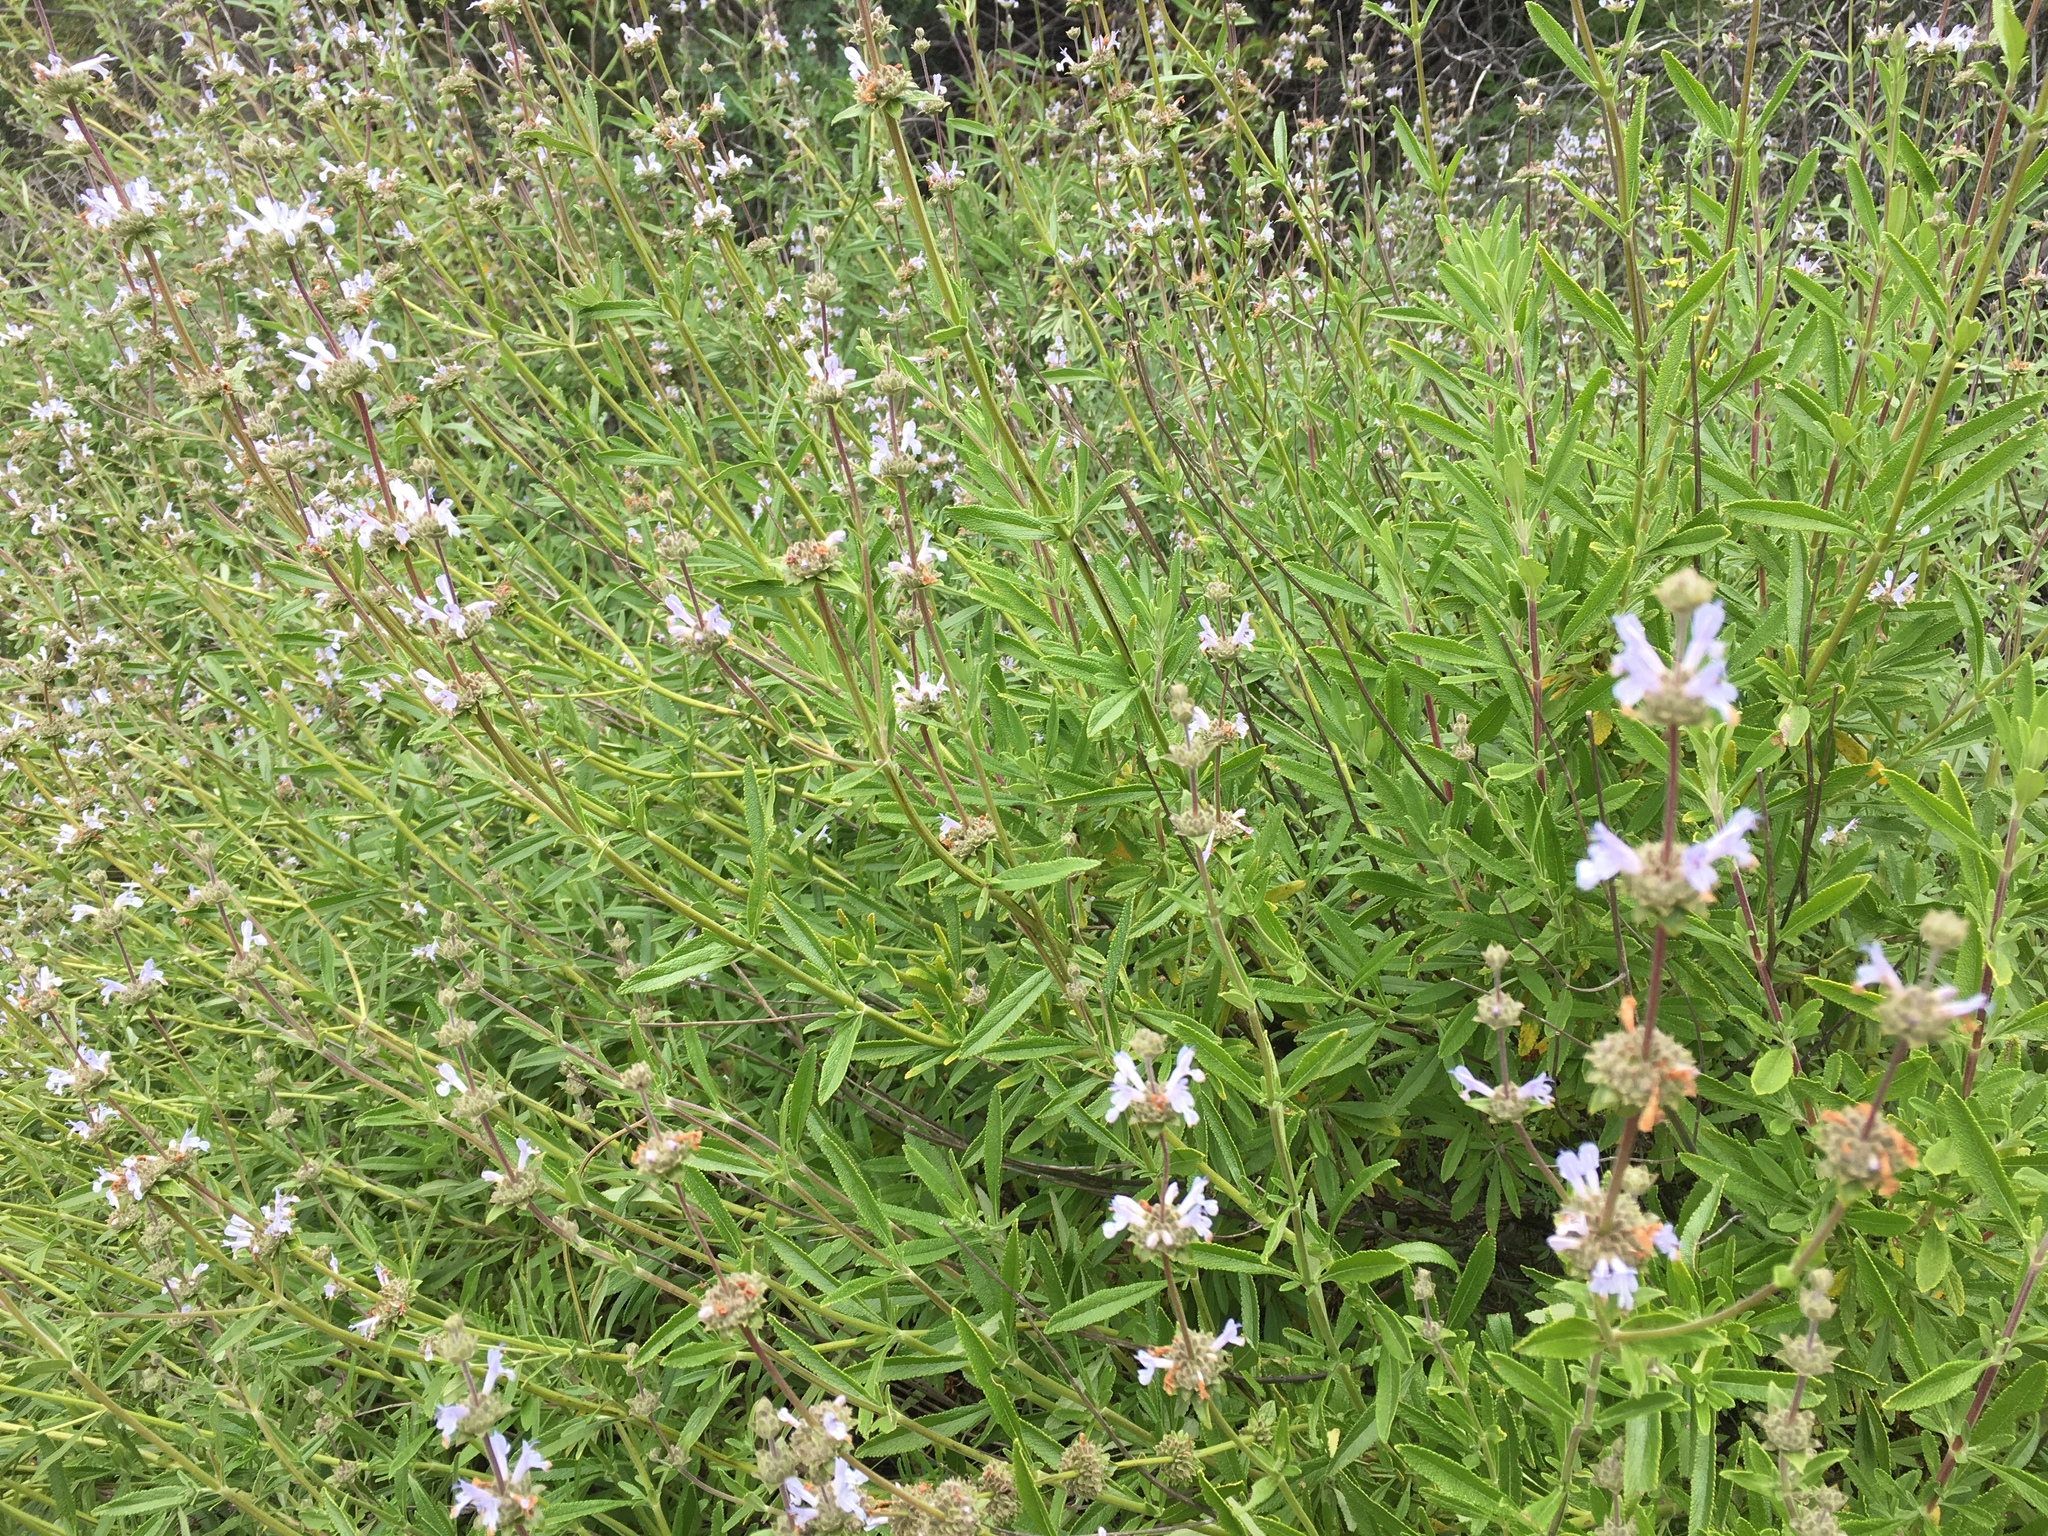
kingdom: Plantae
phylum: Tracheophyta
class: Magnoliopsida
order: Lamiales
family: Lamiaceae
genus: Salvia
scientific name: Salvia mellifera
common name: Black sage
